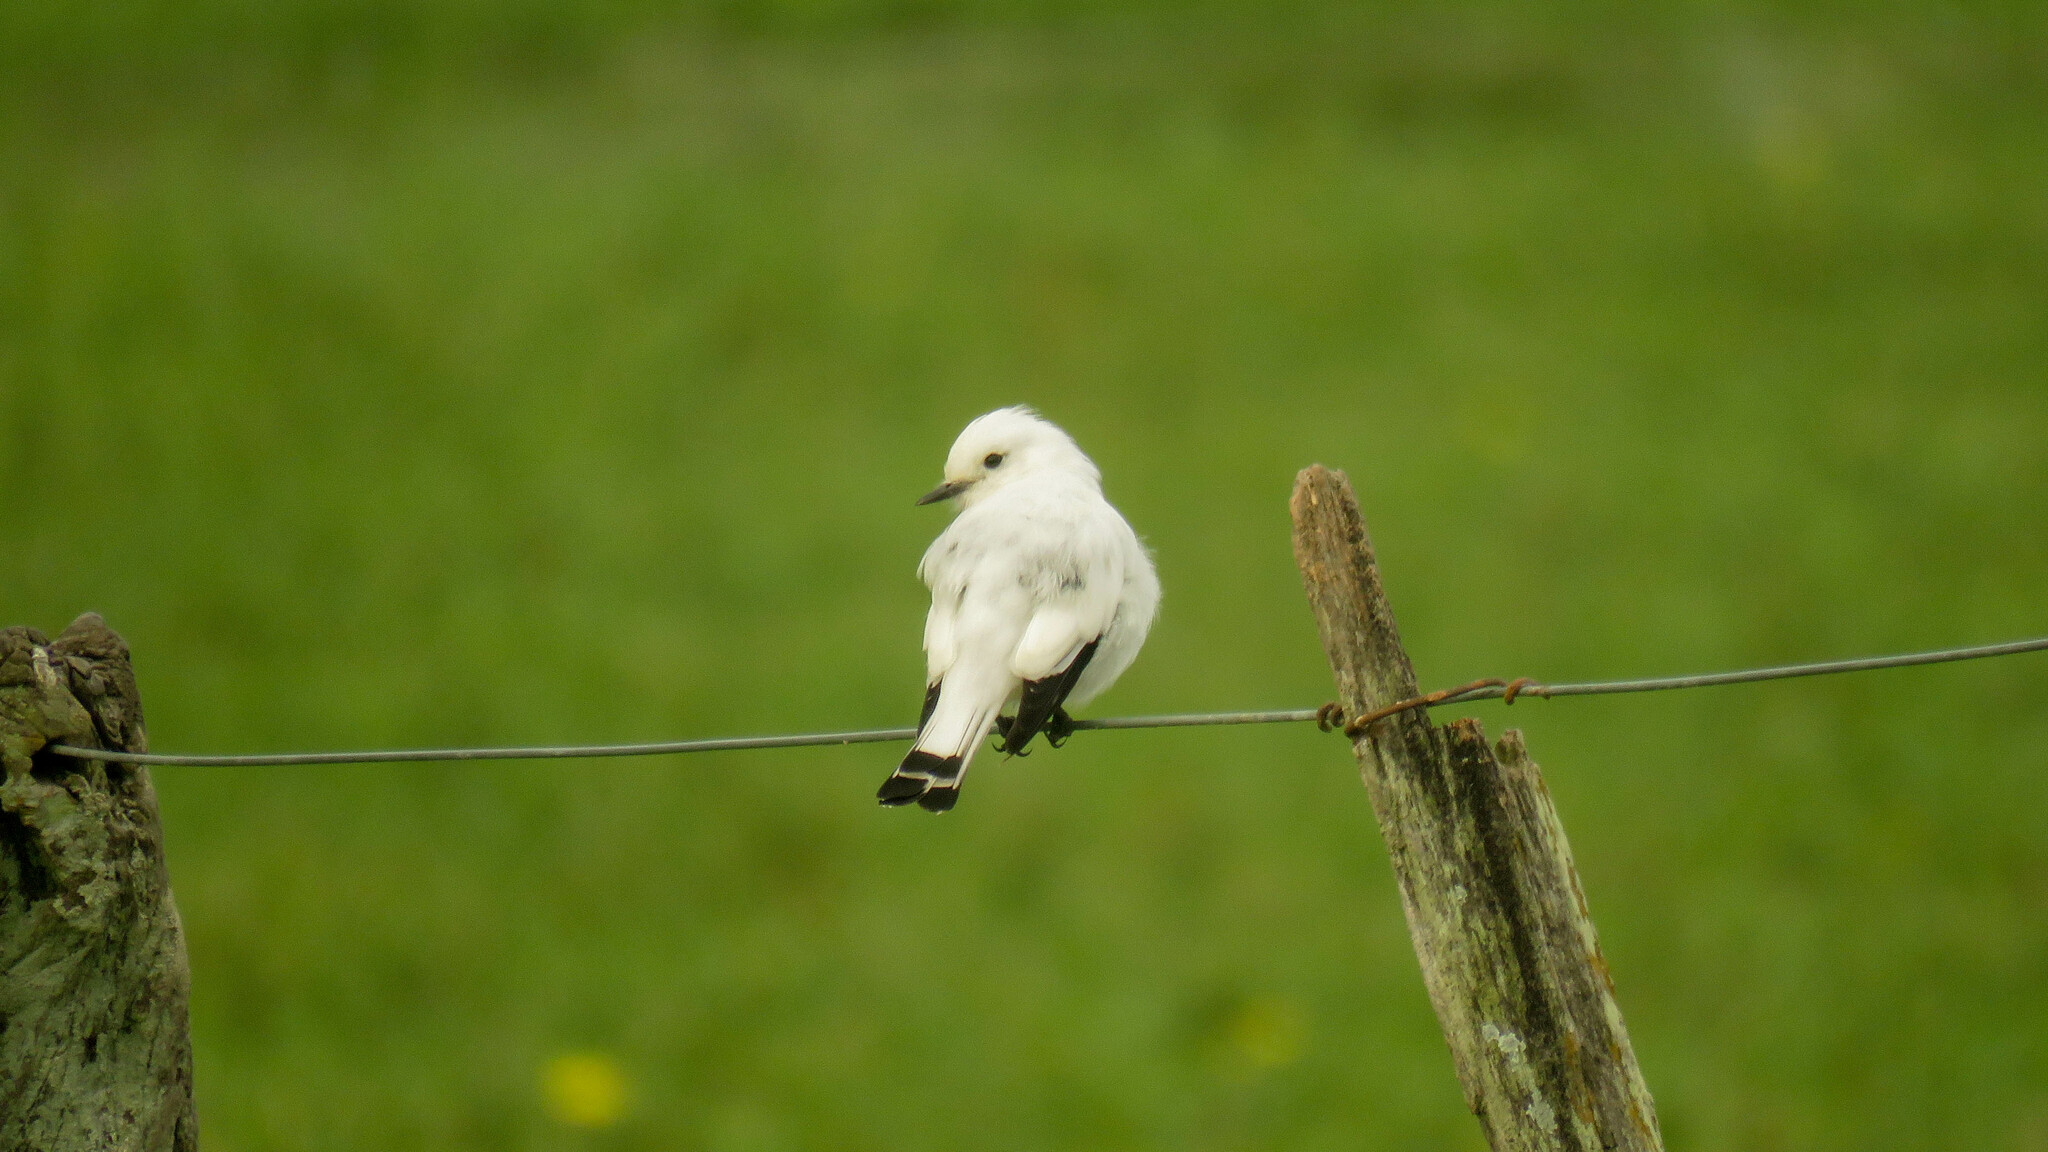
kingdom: Animalia
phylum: Chordata
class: Aves
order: Passeriformes
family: Tyrannidae
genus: Xolmis
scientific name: Xolmis irupero
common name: White monjita
